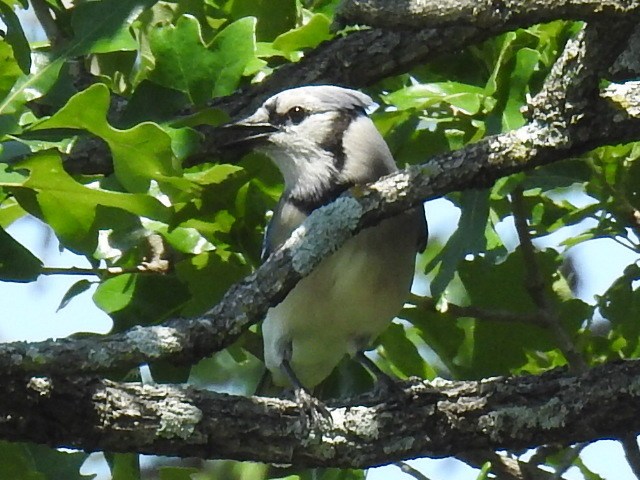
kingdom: Animalia
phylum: Chordata
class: Aves
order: Passeriformes
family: Corvidae
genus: Cyanocitta
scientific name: Cyanocitta cristata
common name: Blue jay
